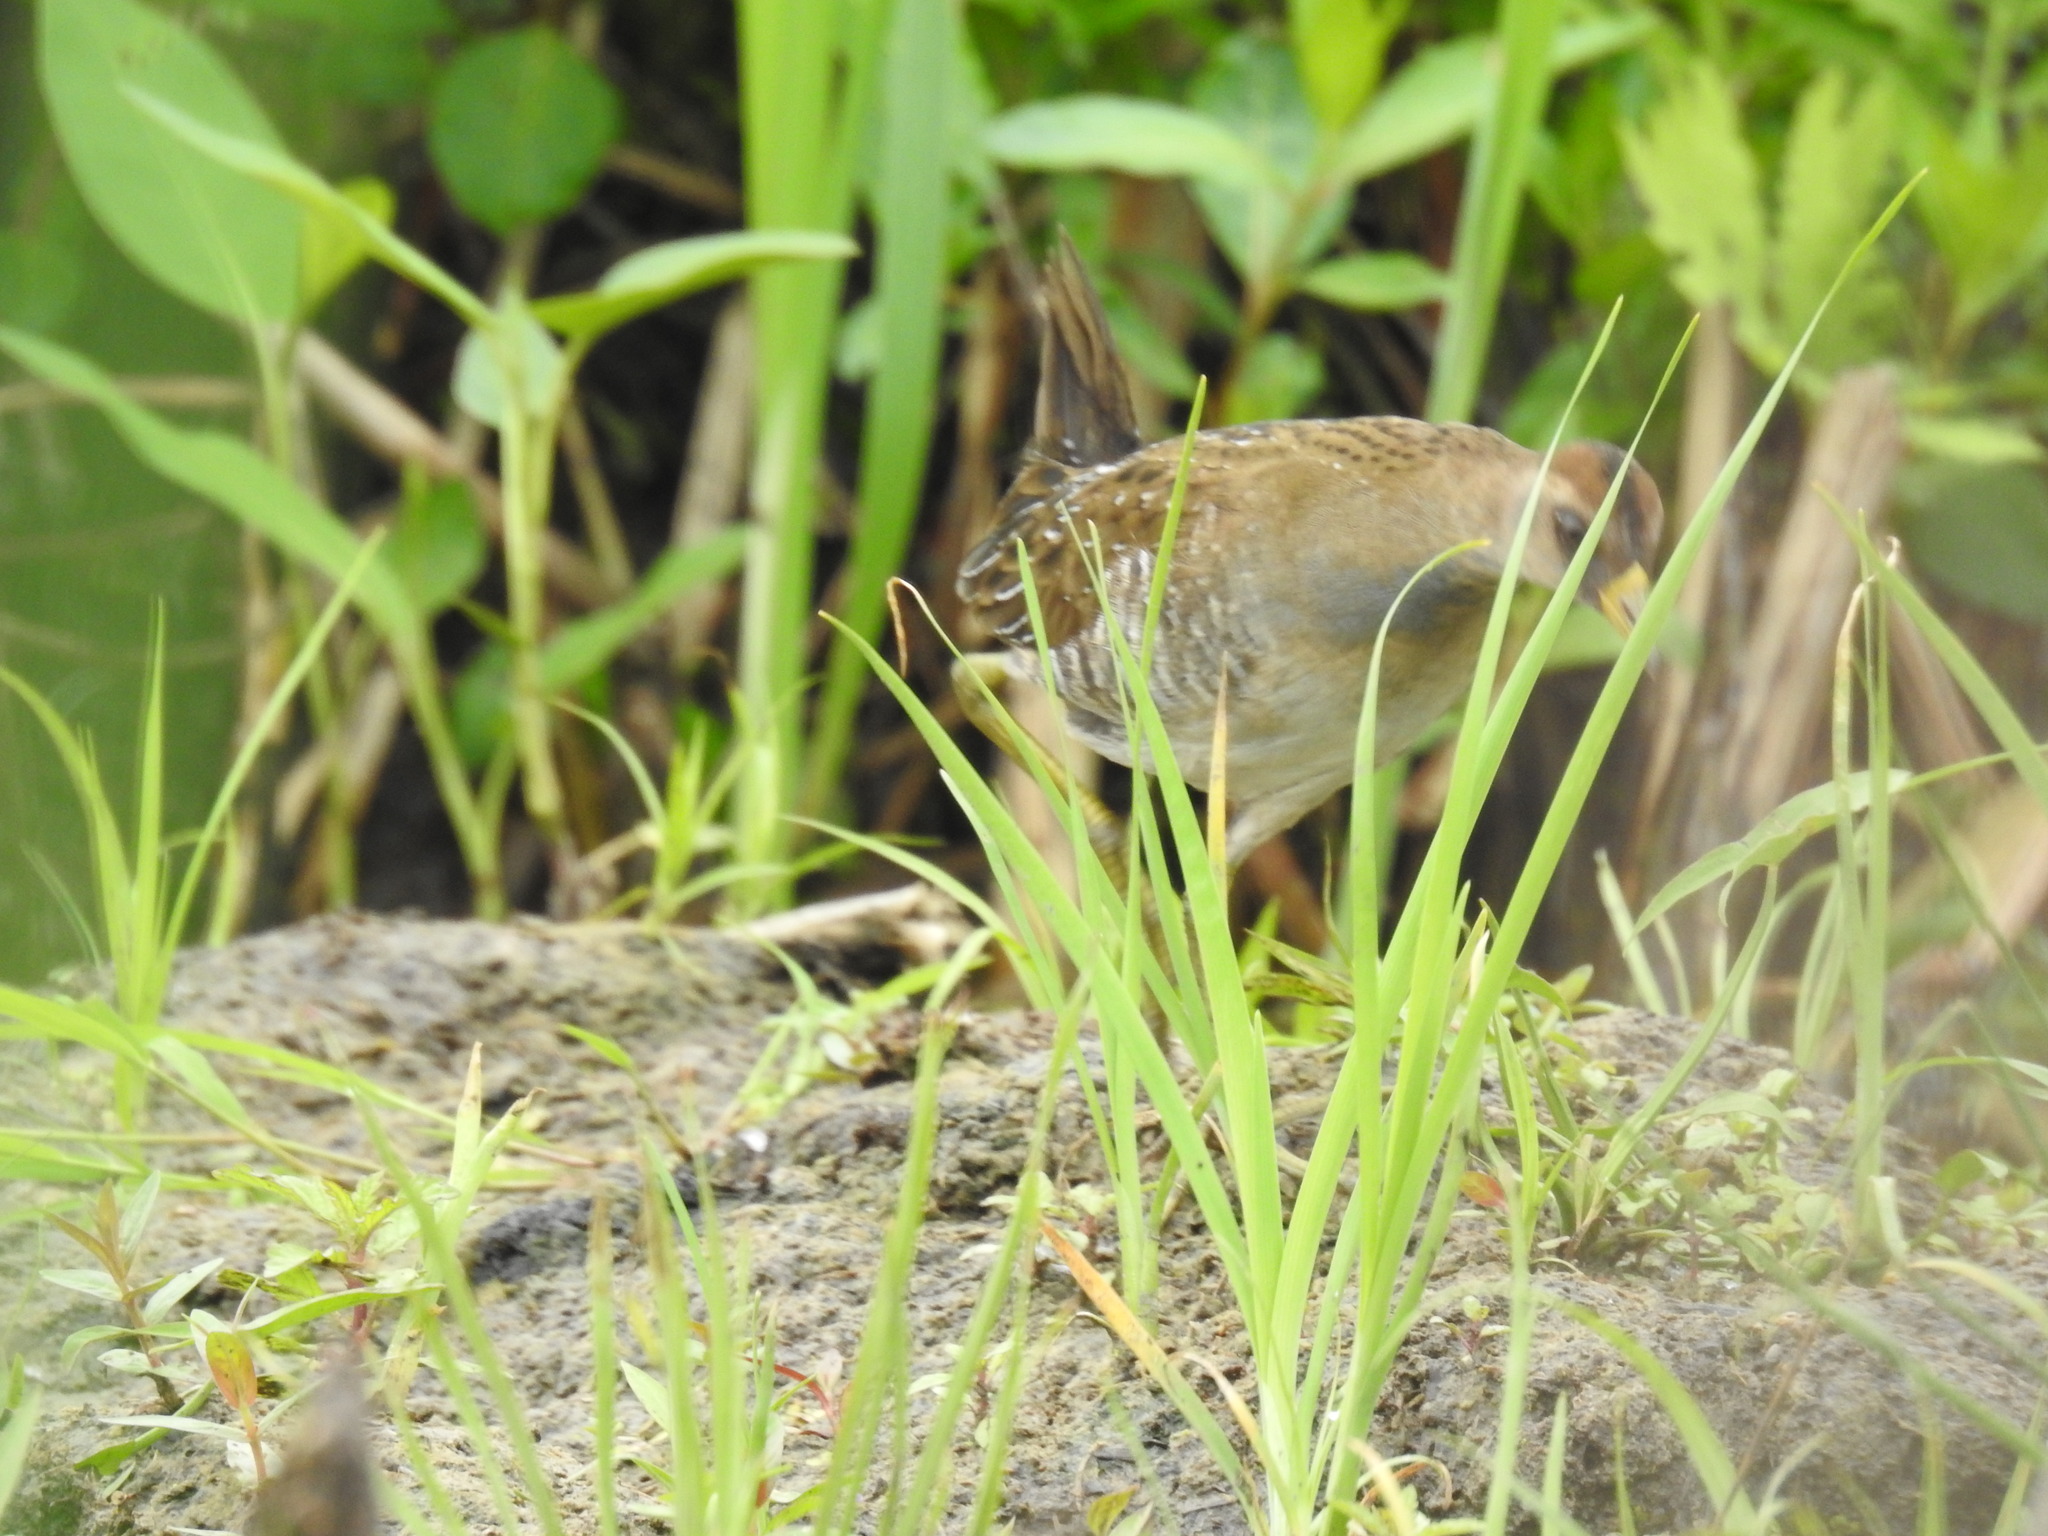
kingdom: Animalia
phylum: Chordata
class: Aves
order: Gruiformes
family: Rallidae
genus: Porzana
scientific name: Porzana carolina
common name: Sora
